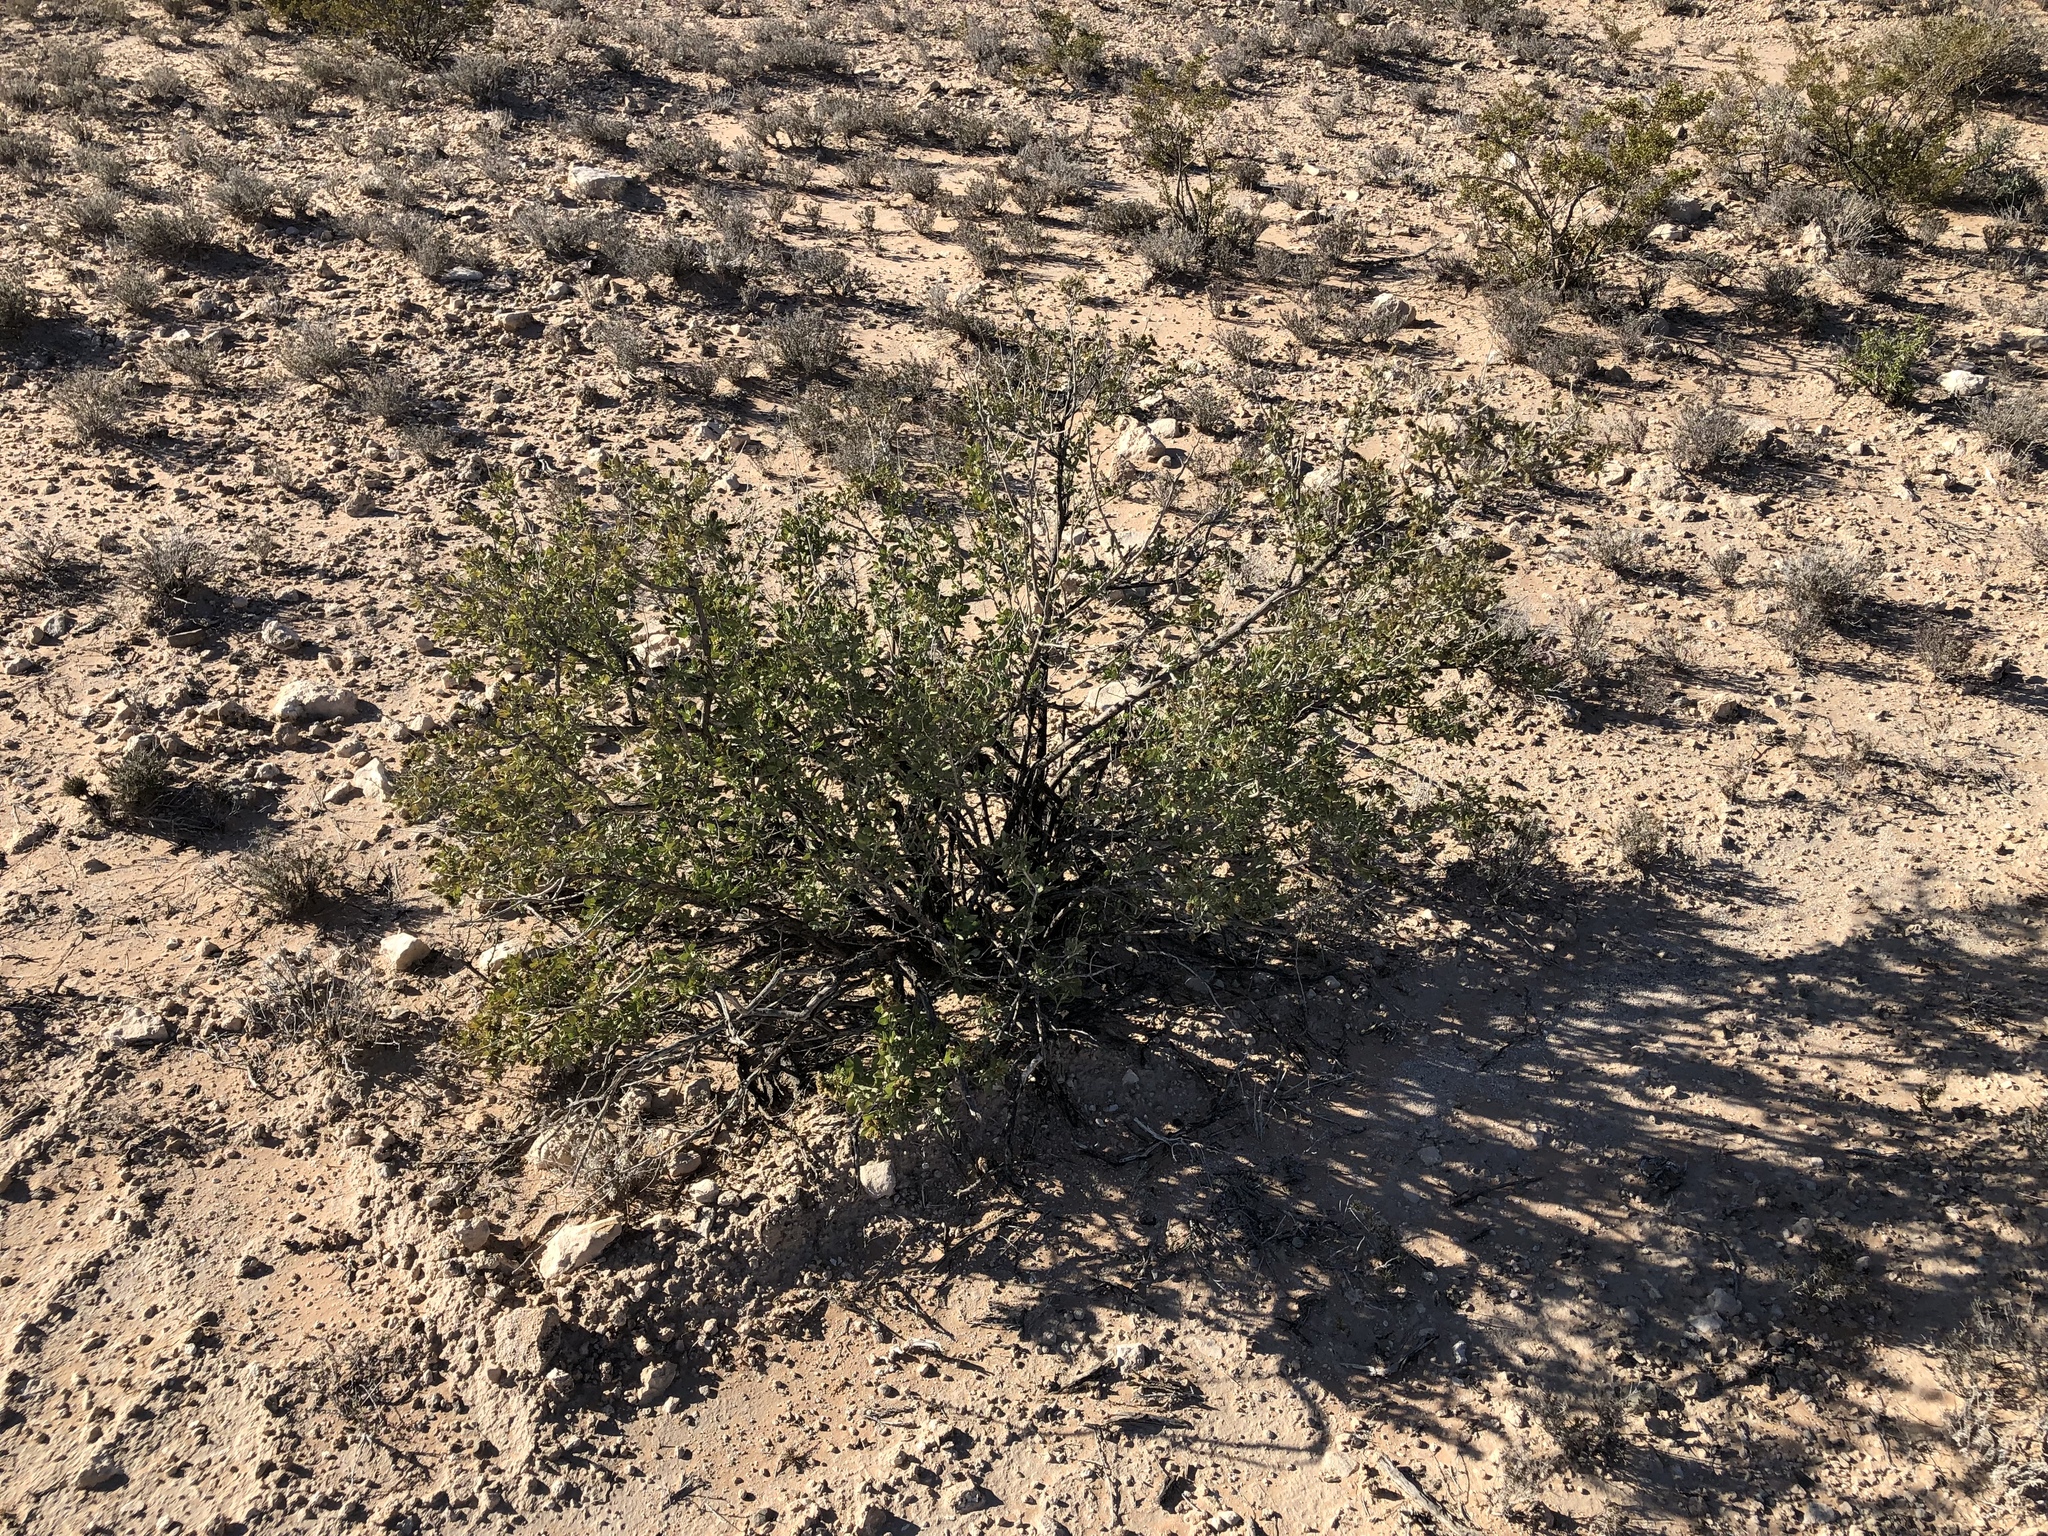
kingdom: Plantae
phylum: Tracheophyta
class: Magnoliopsida
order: Zygophyllales
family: Zygophyllaceae
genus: Larrea
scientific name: Larrea tridentata
